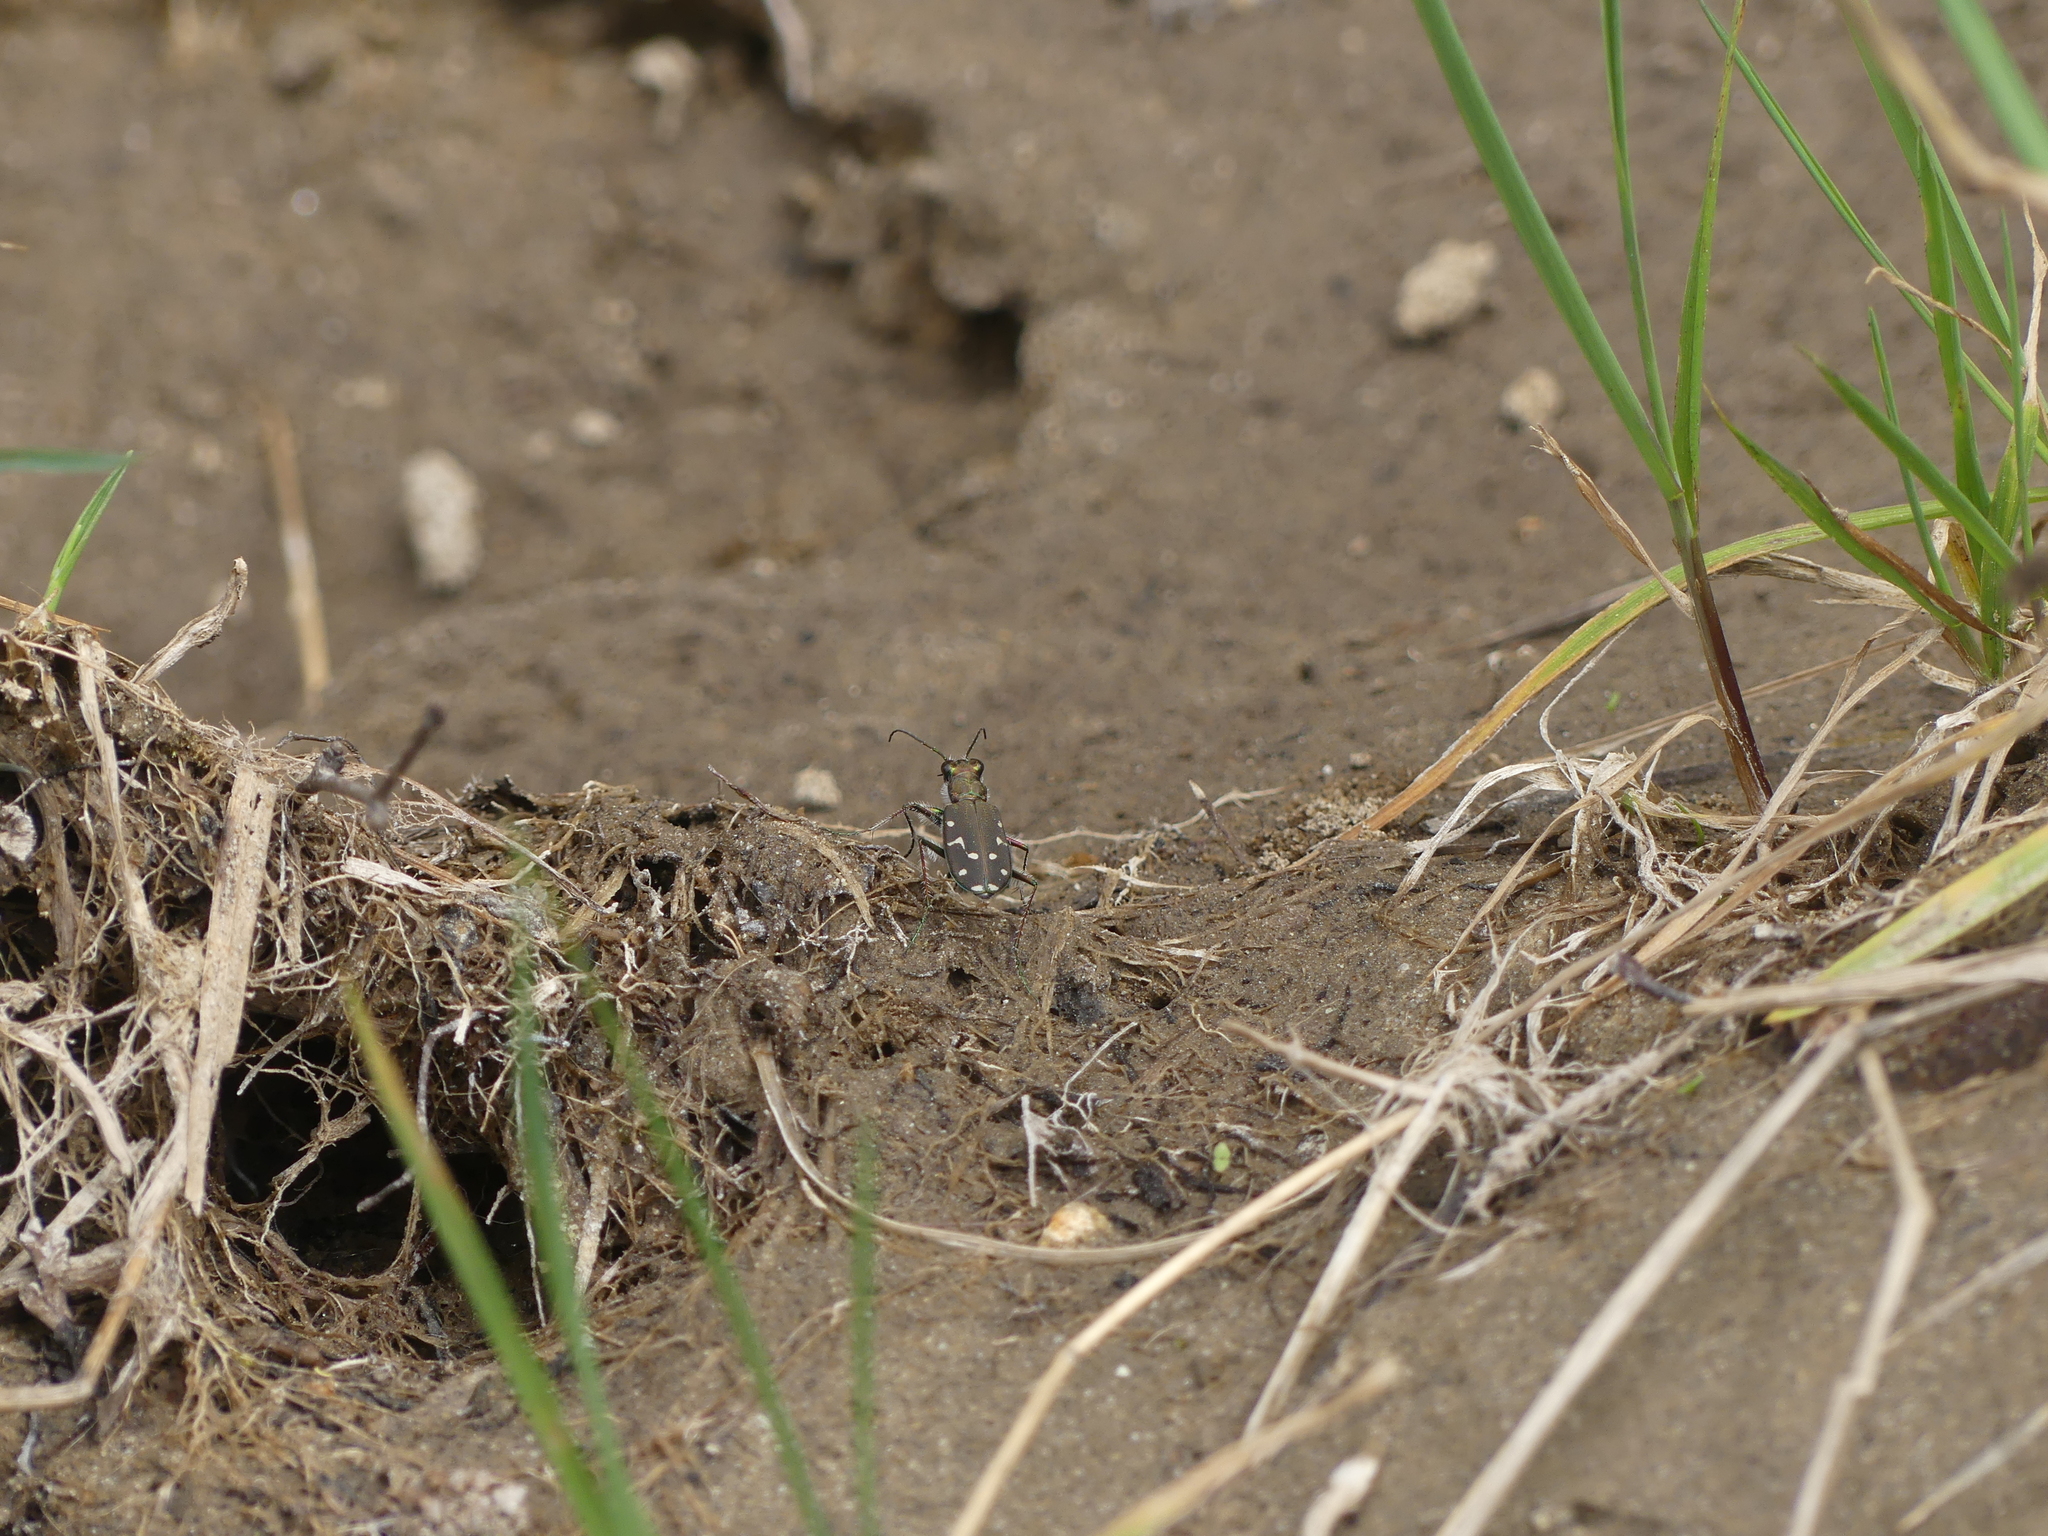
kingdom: Animalia
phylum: Arthropoda
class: Insecta
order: Coleoptera
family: Carabidae
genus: Cicindela
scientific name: Cicindela oregona
